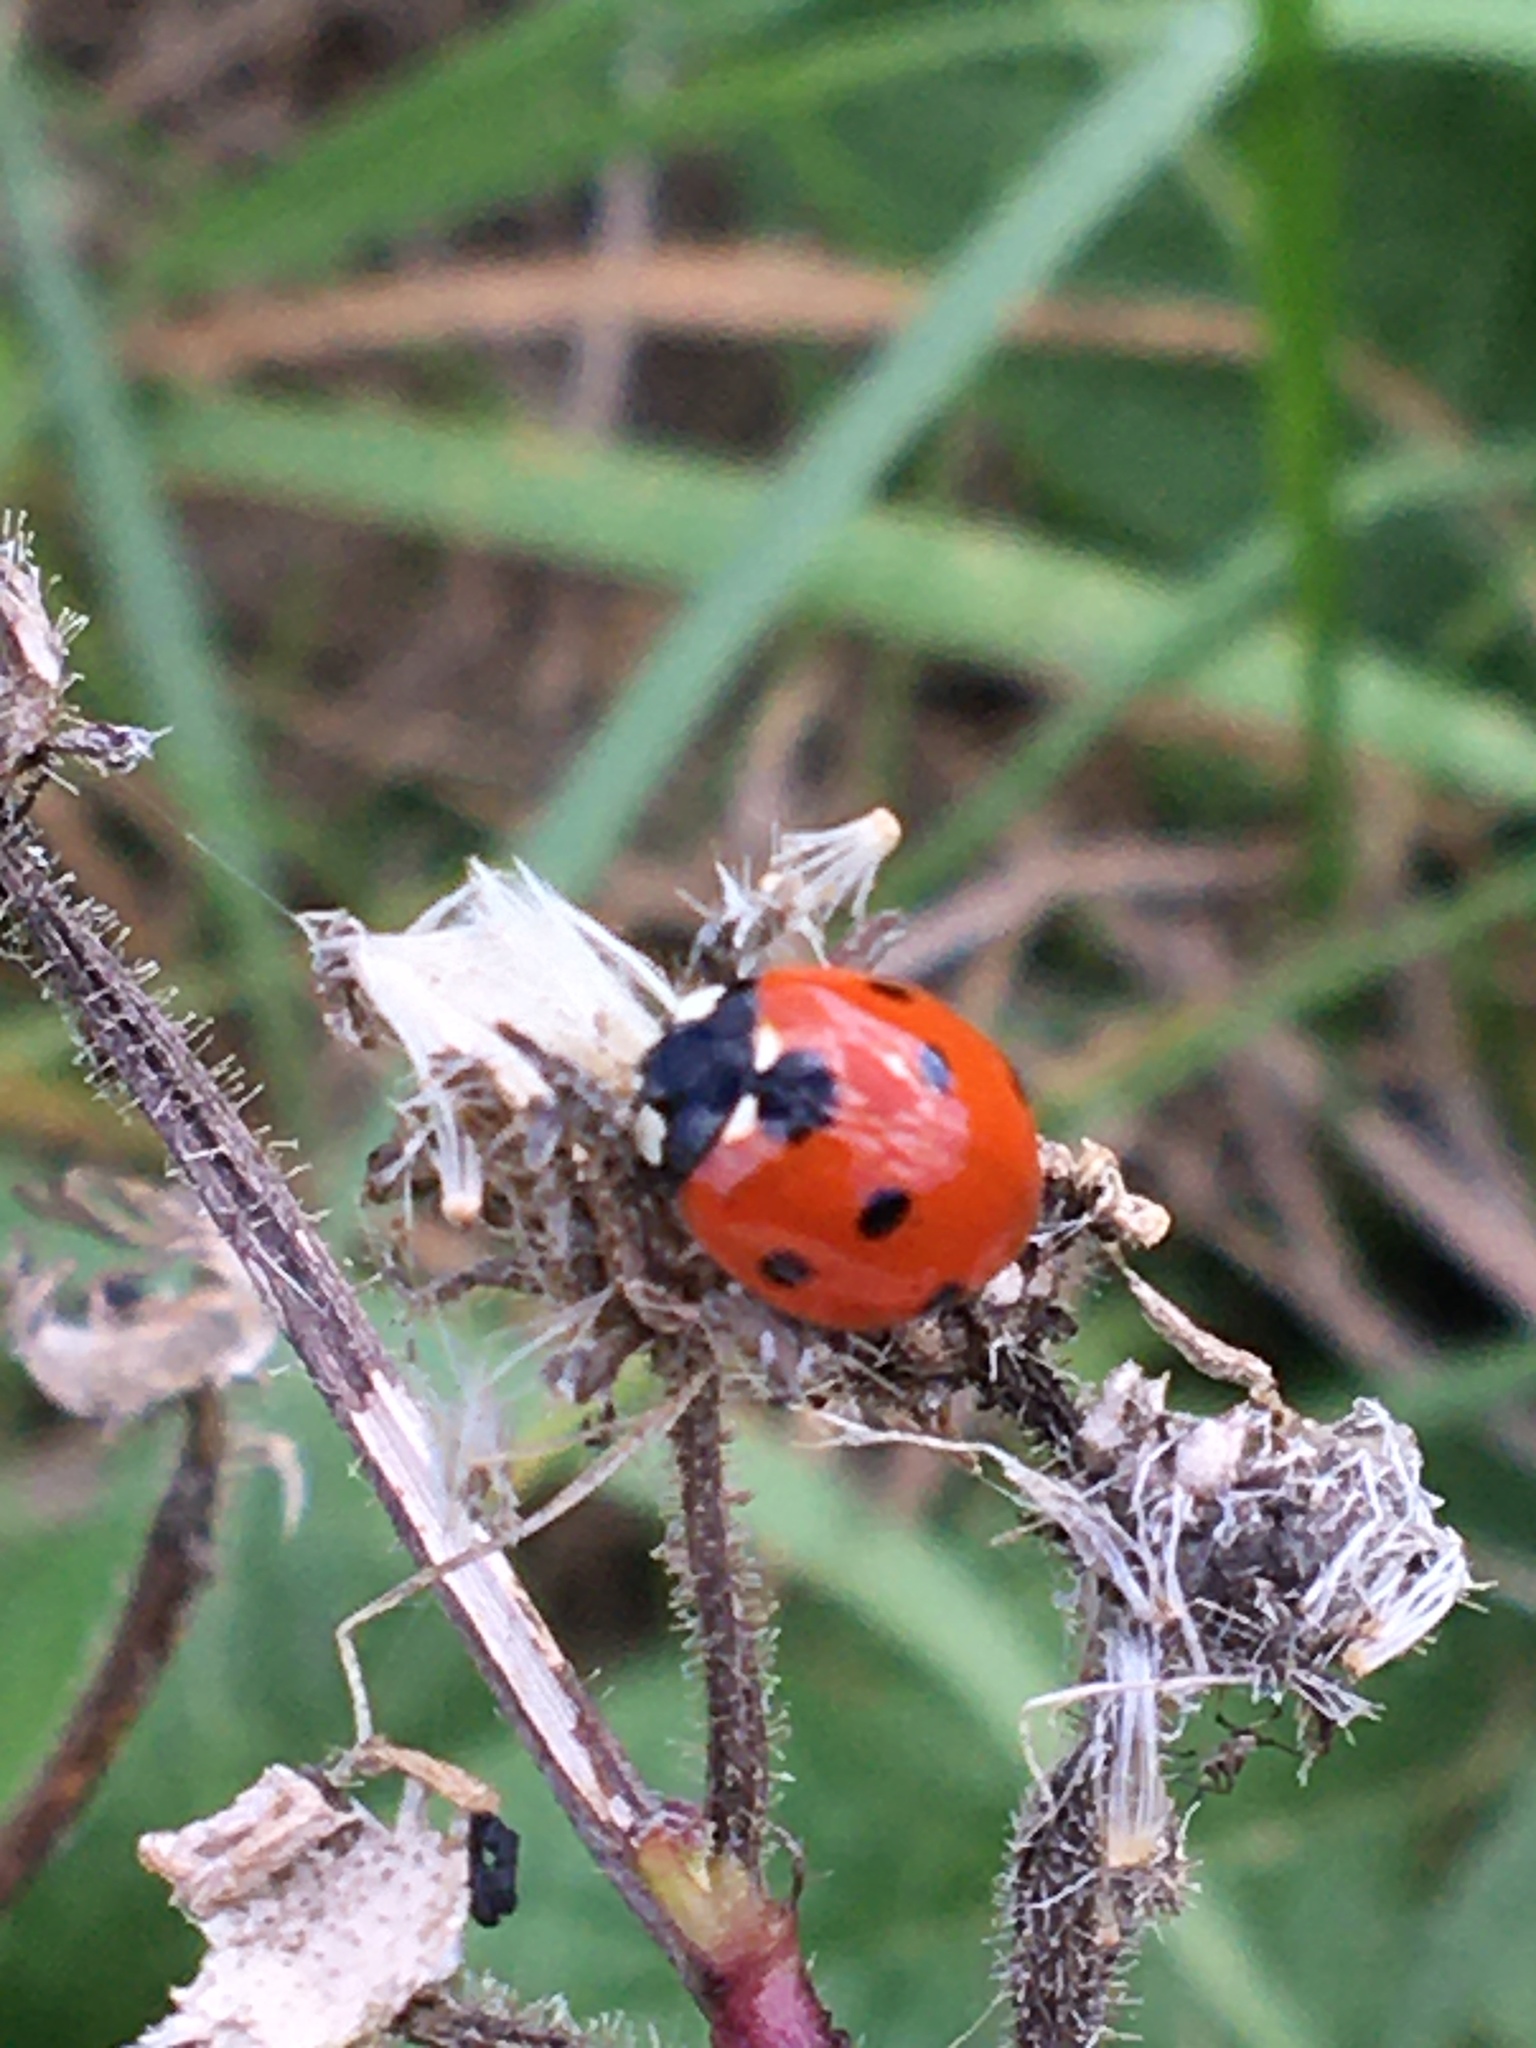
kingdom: Animalia
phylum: Arthropoda
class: Insecta
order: Coleoptera
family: Coccinellidae
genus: Coccinella
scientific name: Coccinella septempunctata
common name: Sevenspotted lady beetle
